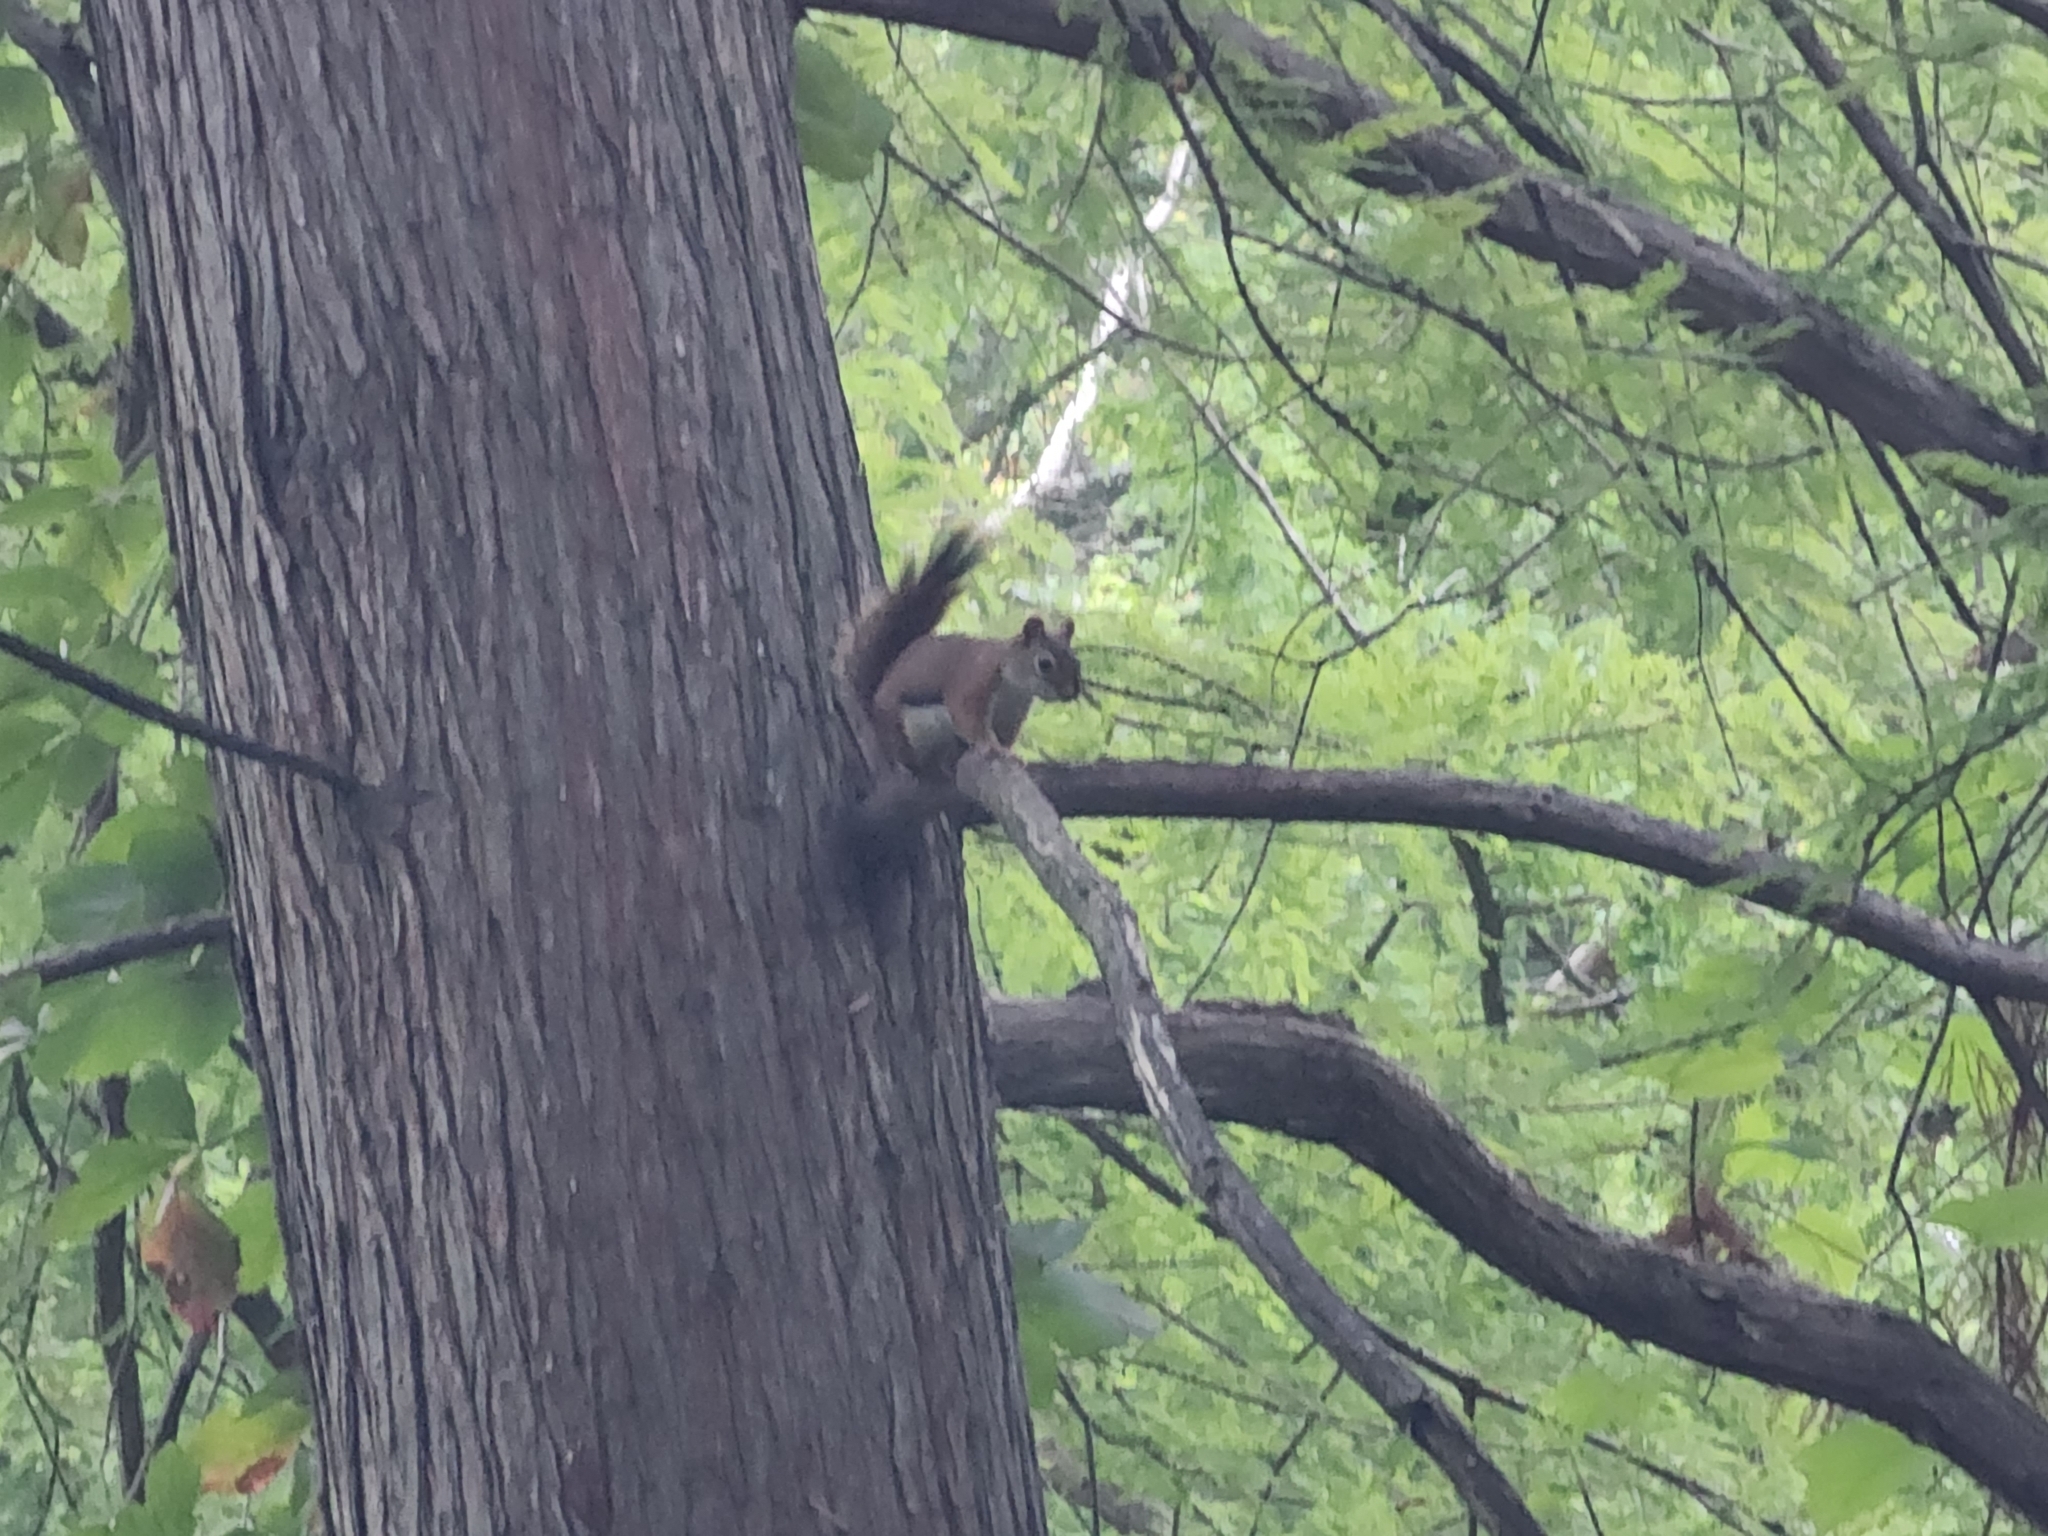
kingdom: Animalia
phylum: Chordata
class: Mammalia
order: Rodentia
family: Sciuridae
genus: Tamiasciurus
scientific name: Tamiasciurus hudsonicus
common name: Red squirrel
